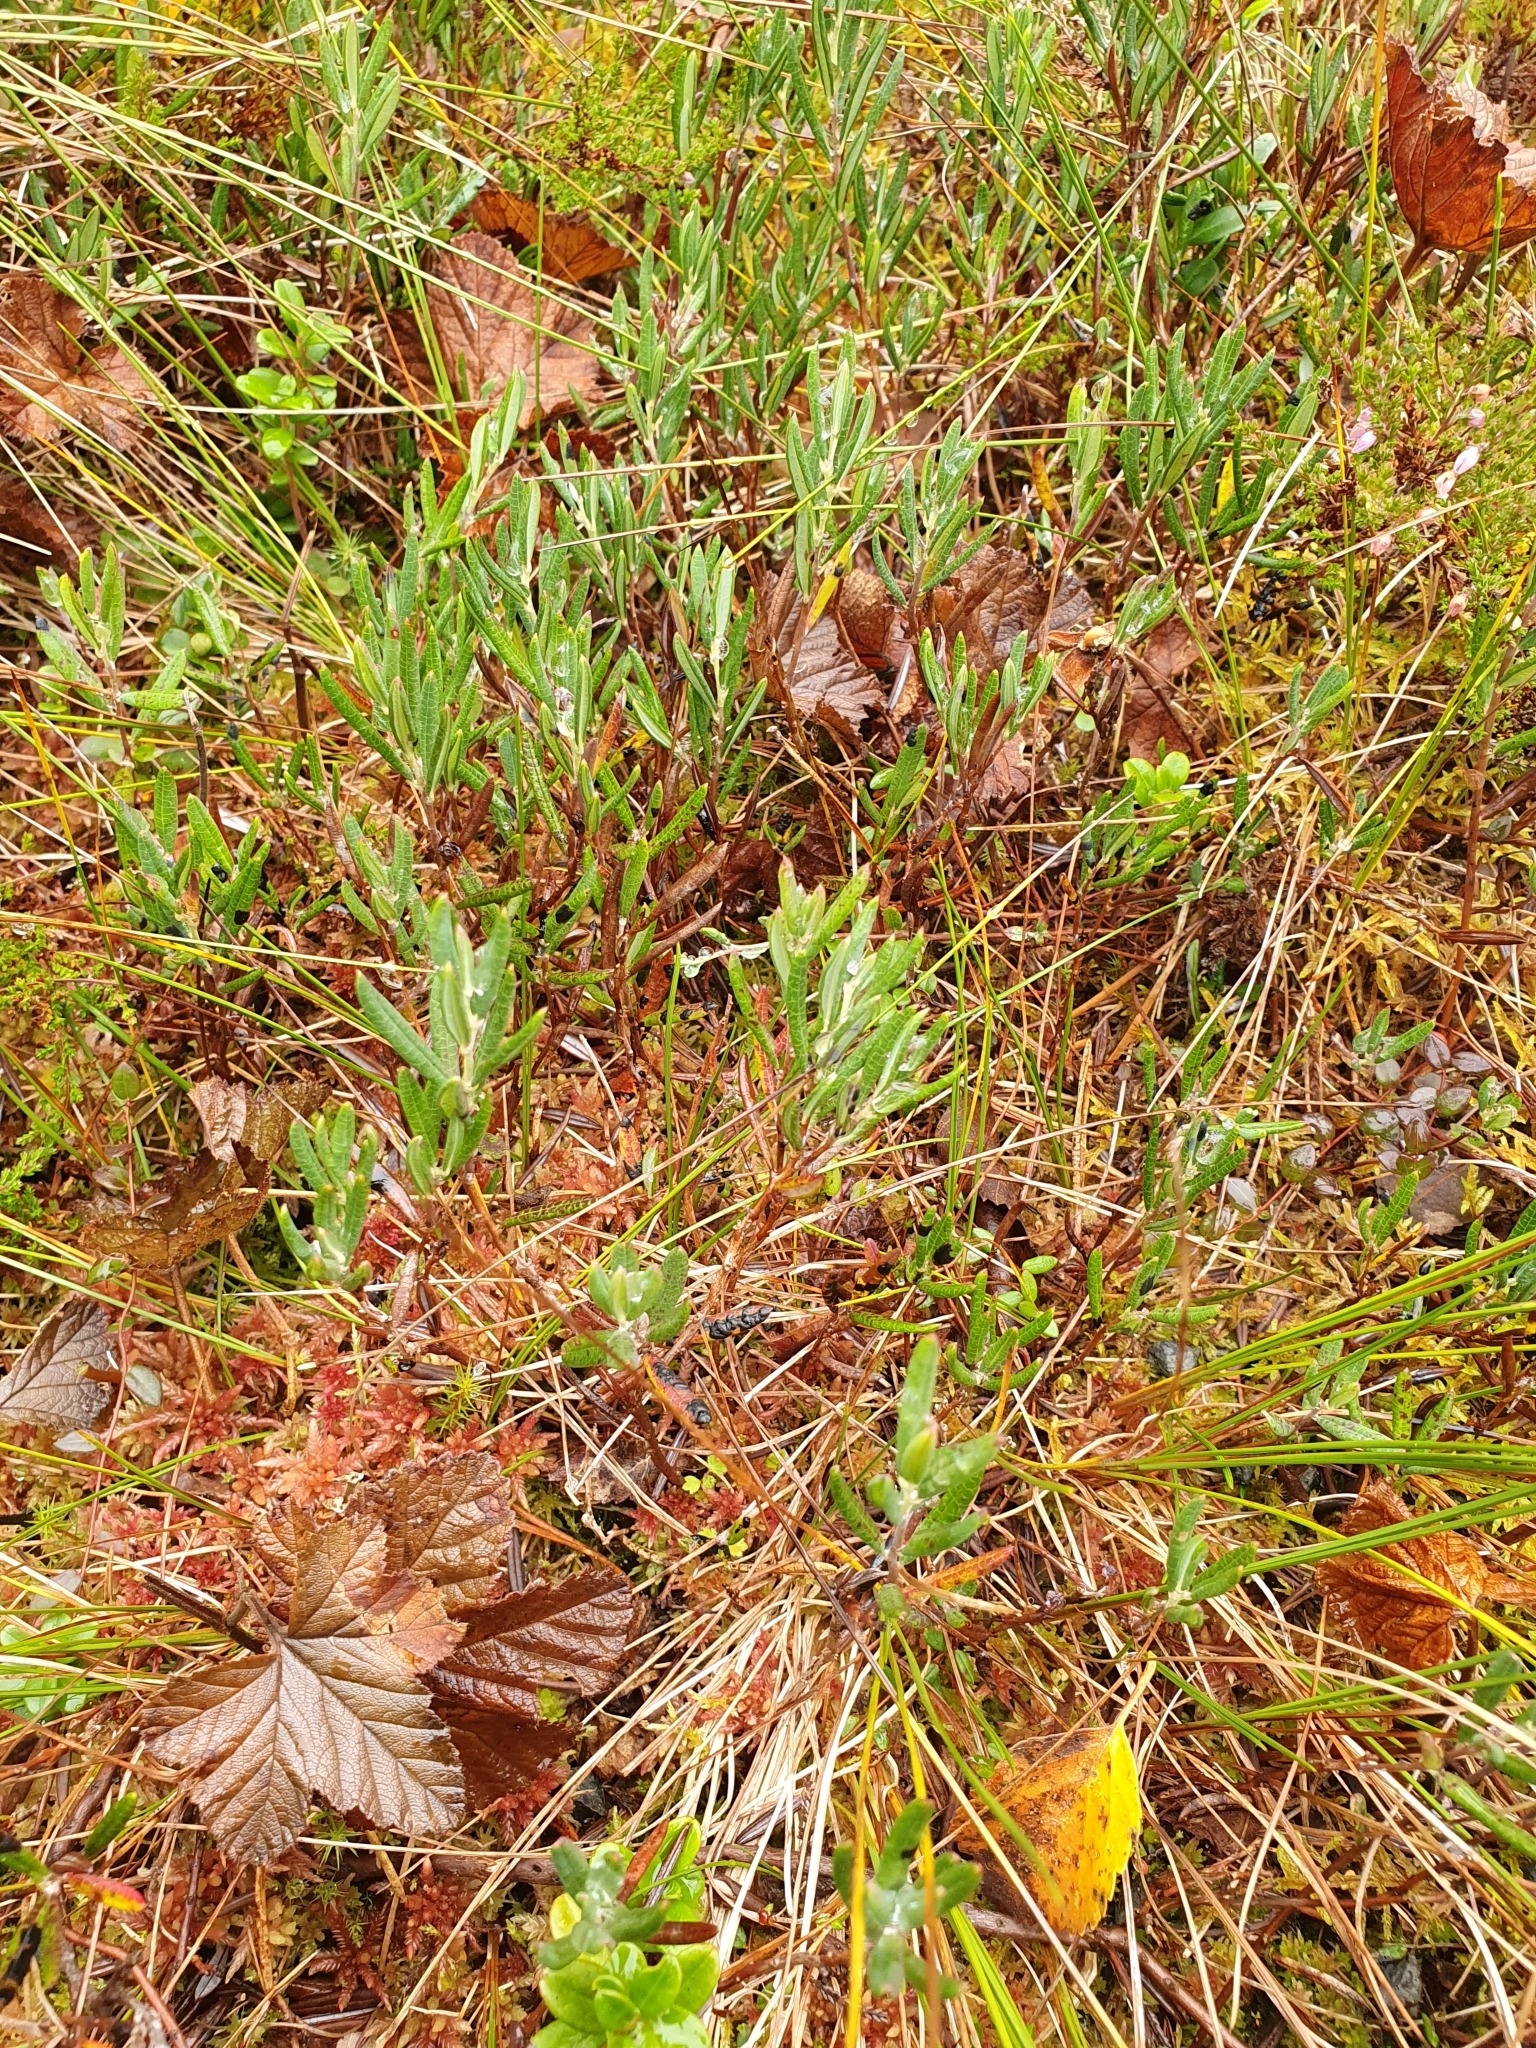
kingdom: Plantae
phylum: Tracheophyta
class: Magnoliopsida
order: Ericales
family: Ericaceae
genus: Andromeda
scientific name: Andromeda polifolia
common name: Bog-rosemary
